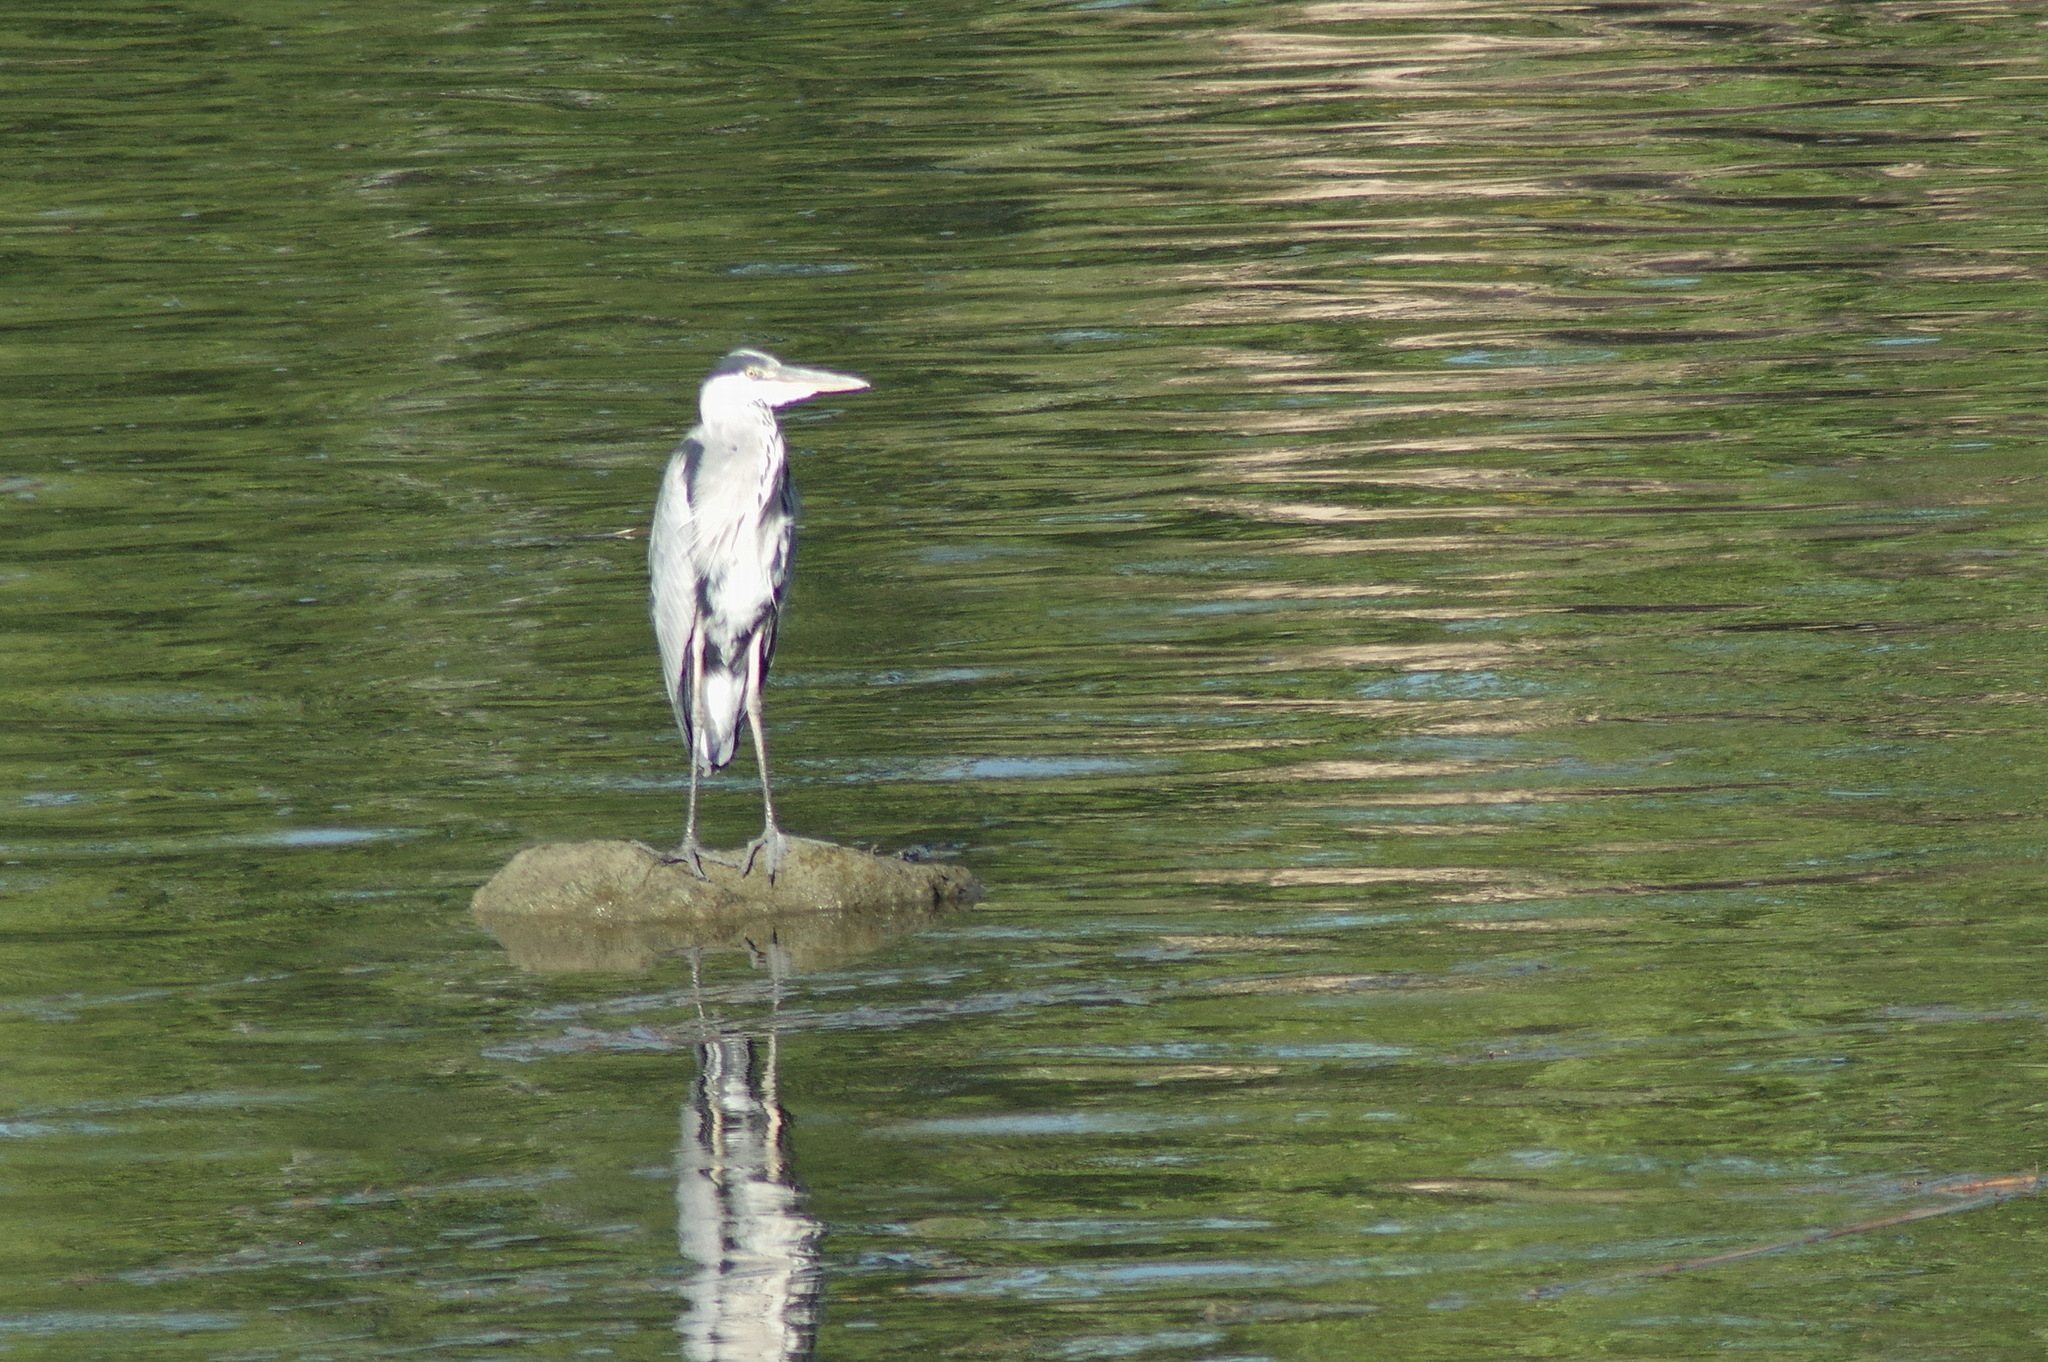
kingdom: Animalia
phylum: Chordata
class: Aves
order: Pelecaniformes
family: Ardeidae
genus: Ardea
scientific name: Ardea cinerea
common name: Grey heron
